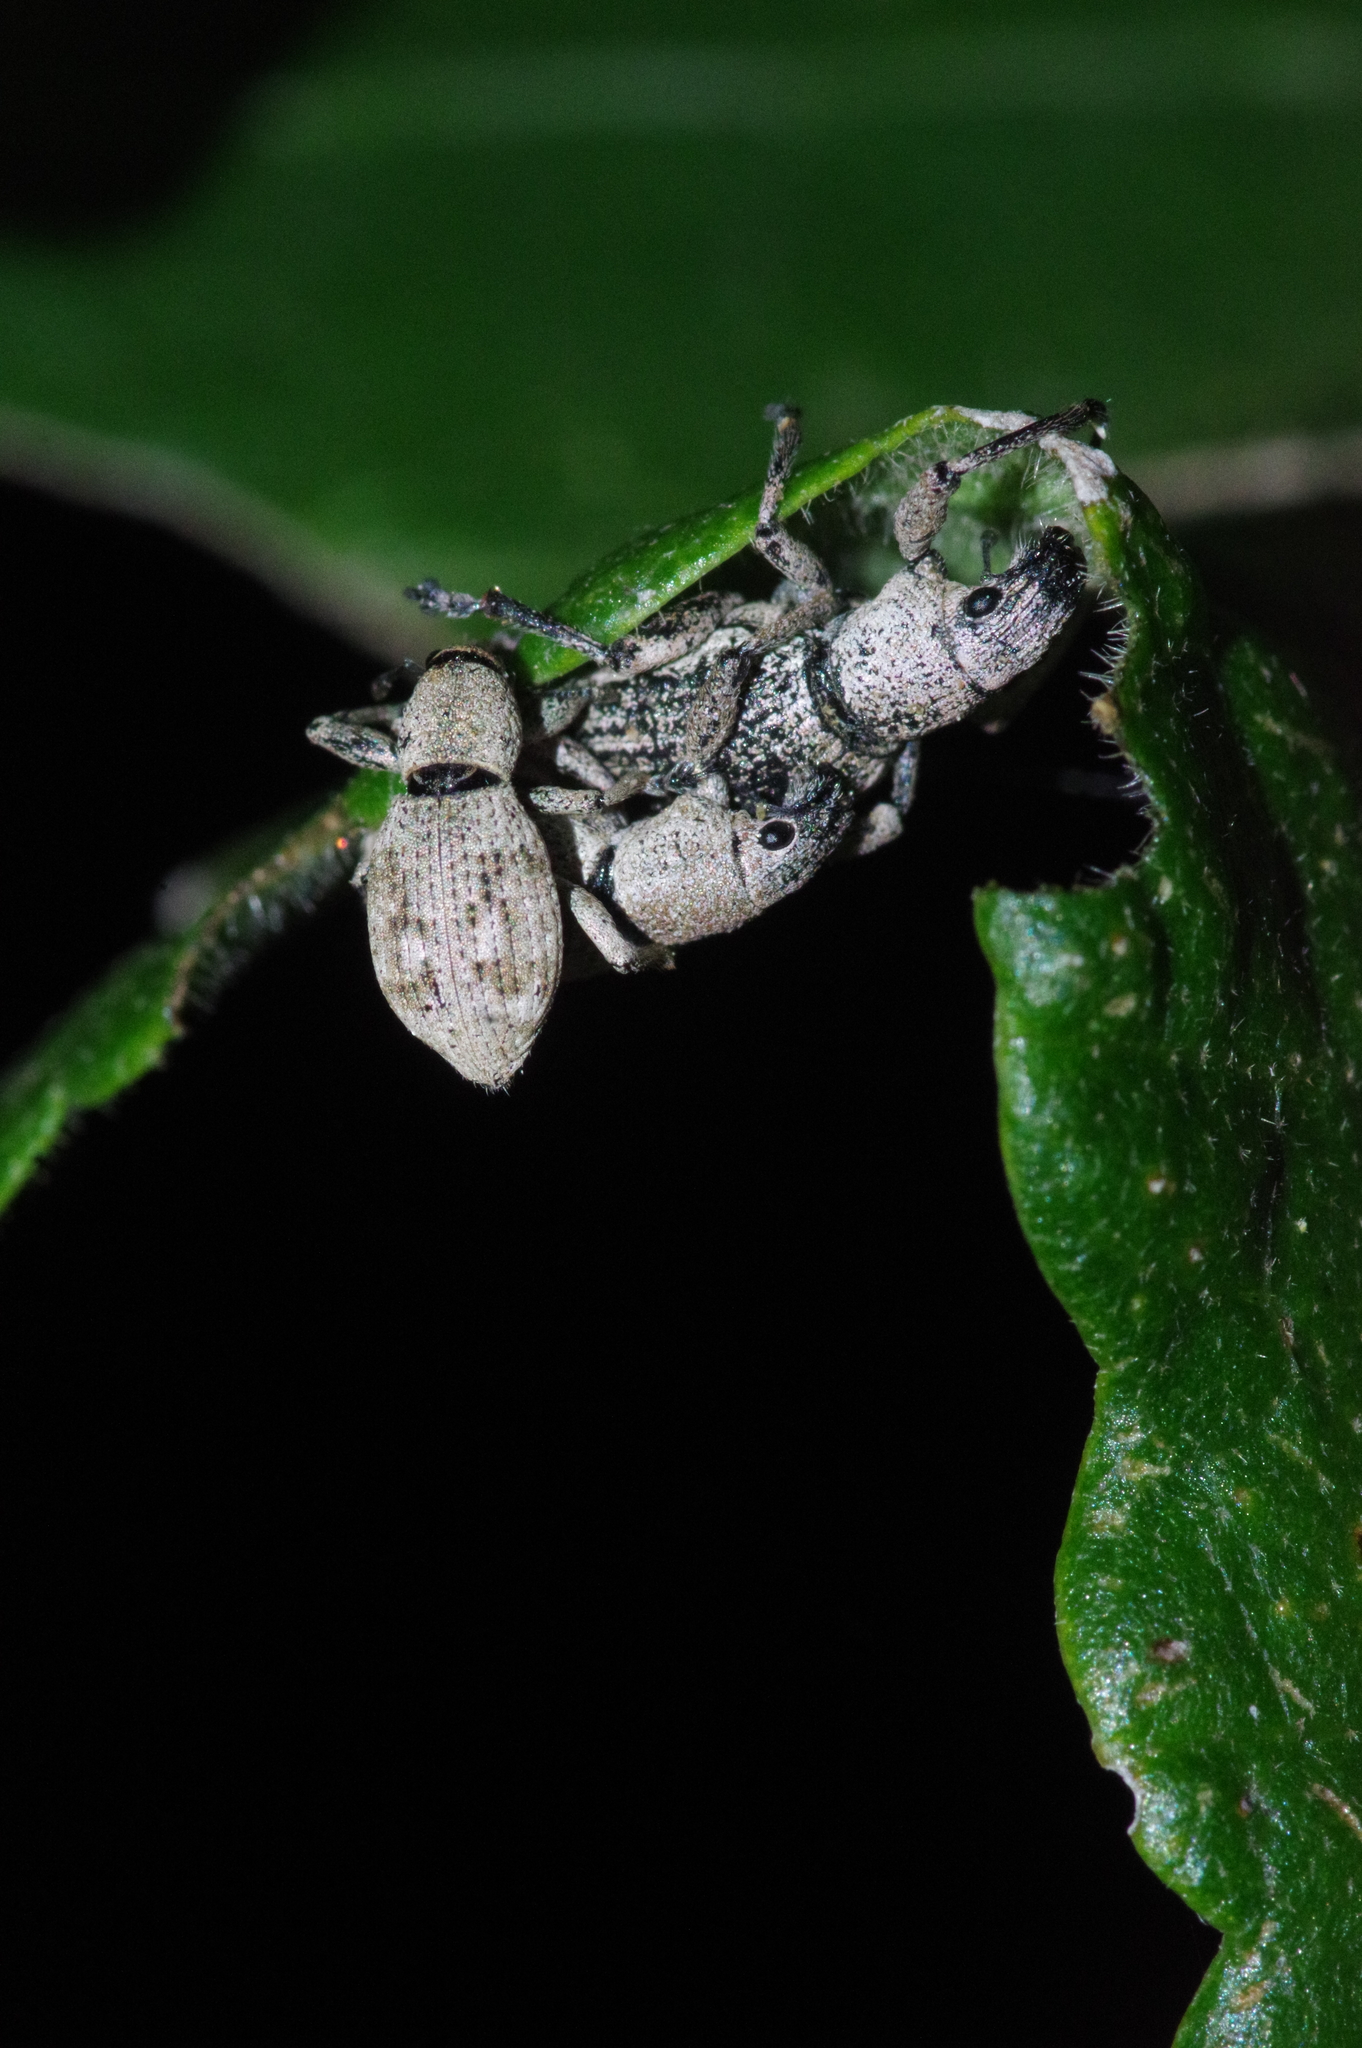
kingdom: Animalia
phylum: Arthropoda
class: Insecta
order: Coleoptera
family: Curculionidae
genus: Sympiezomias
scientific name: Sympiezomias cribricollis
